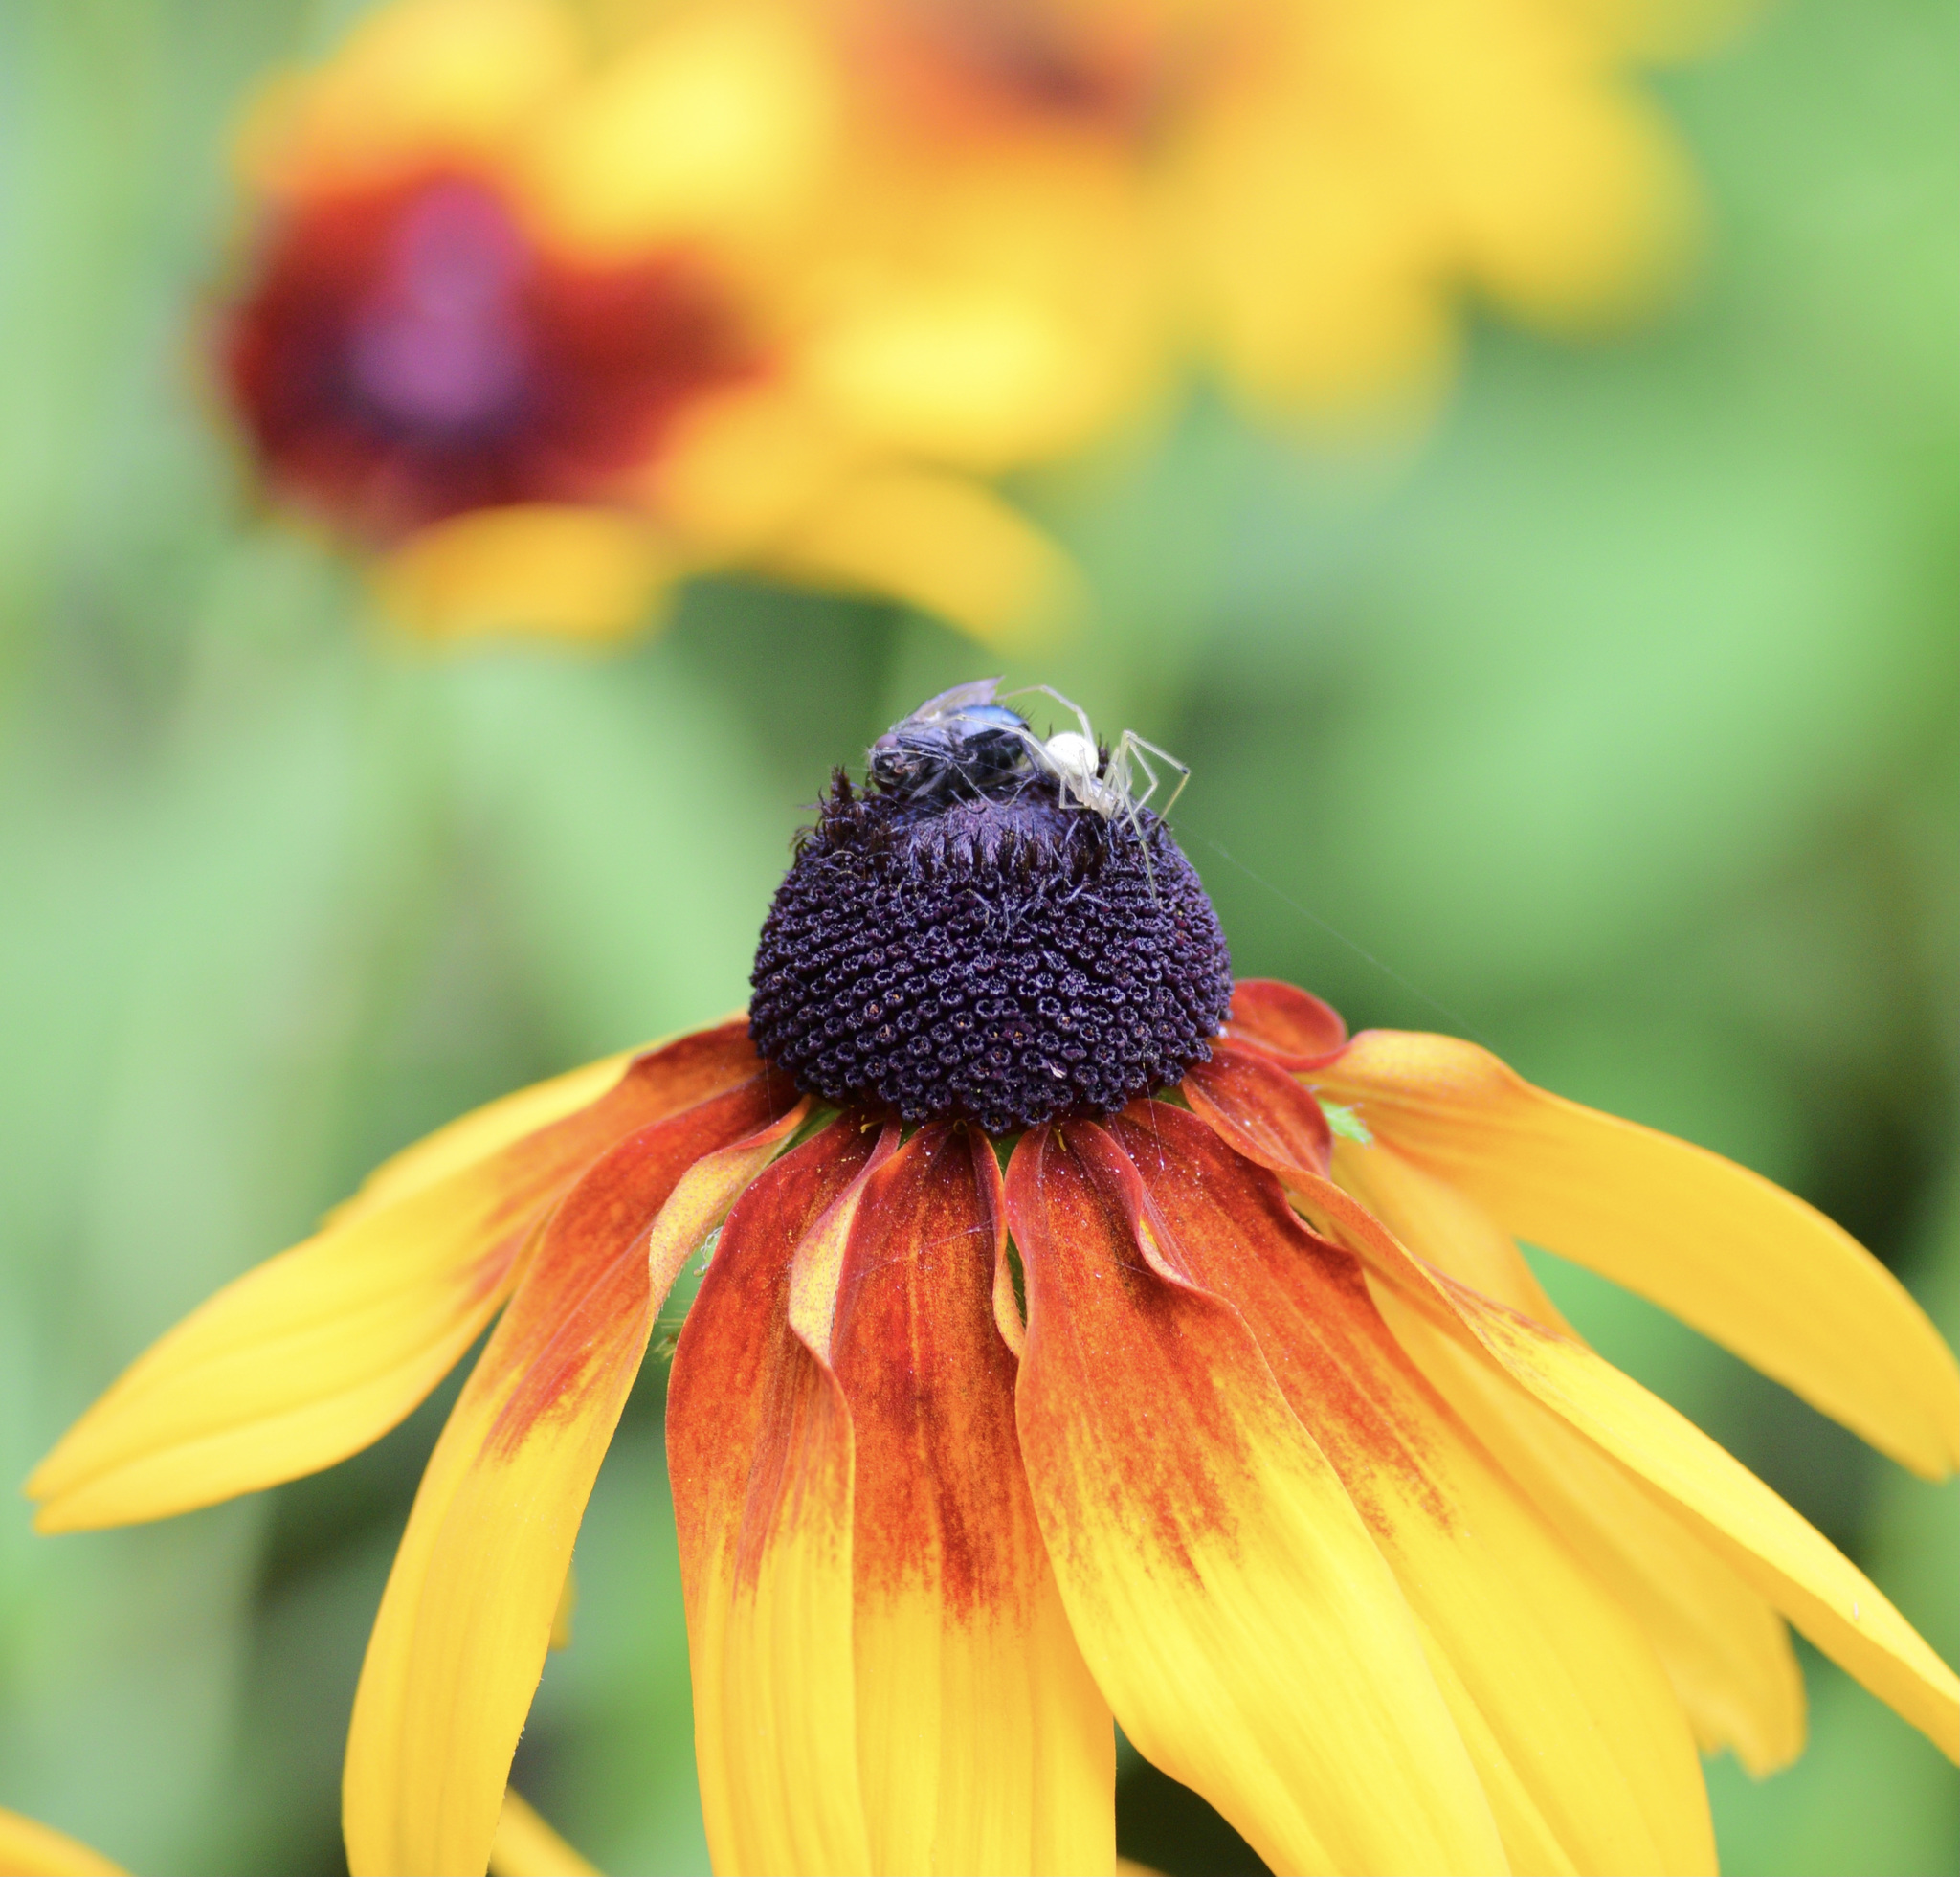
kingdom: Animalia
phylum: Arthropoda
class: Arachnida
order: Araneae
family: Theridiidae
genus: Enoplognatha
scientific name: Enoplognatha ovata
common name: Common candy-striped spider
